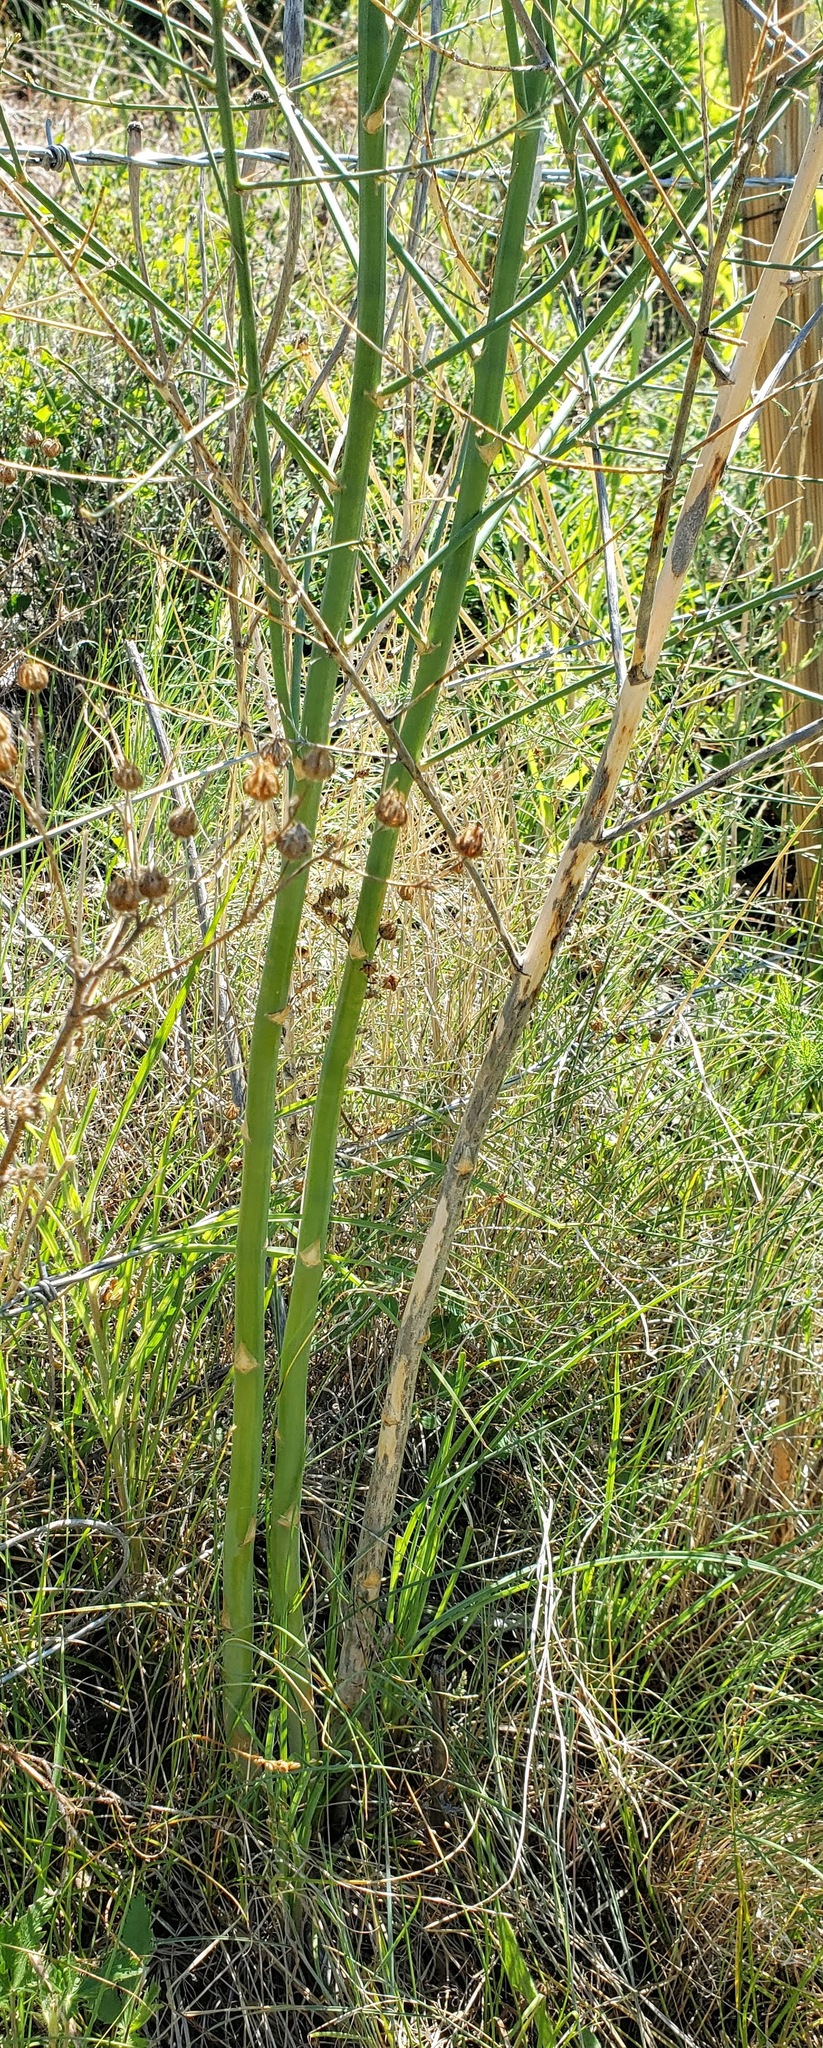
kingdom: Plantae
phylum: Tracheophyta
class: Liliopsida
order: Asparagales
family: Asparagaceae
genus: Asparagus
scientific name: Asparagus officinalis
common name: Garden asparagus
